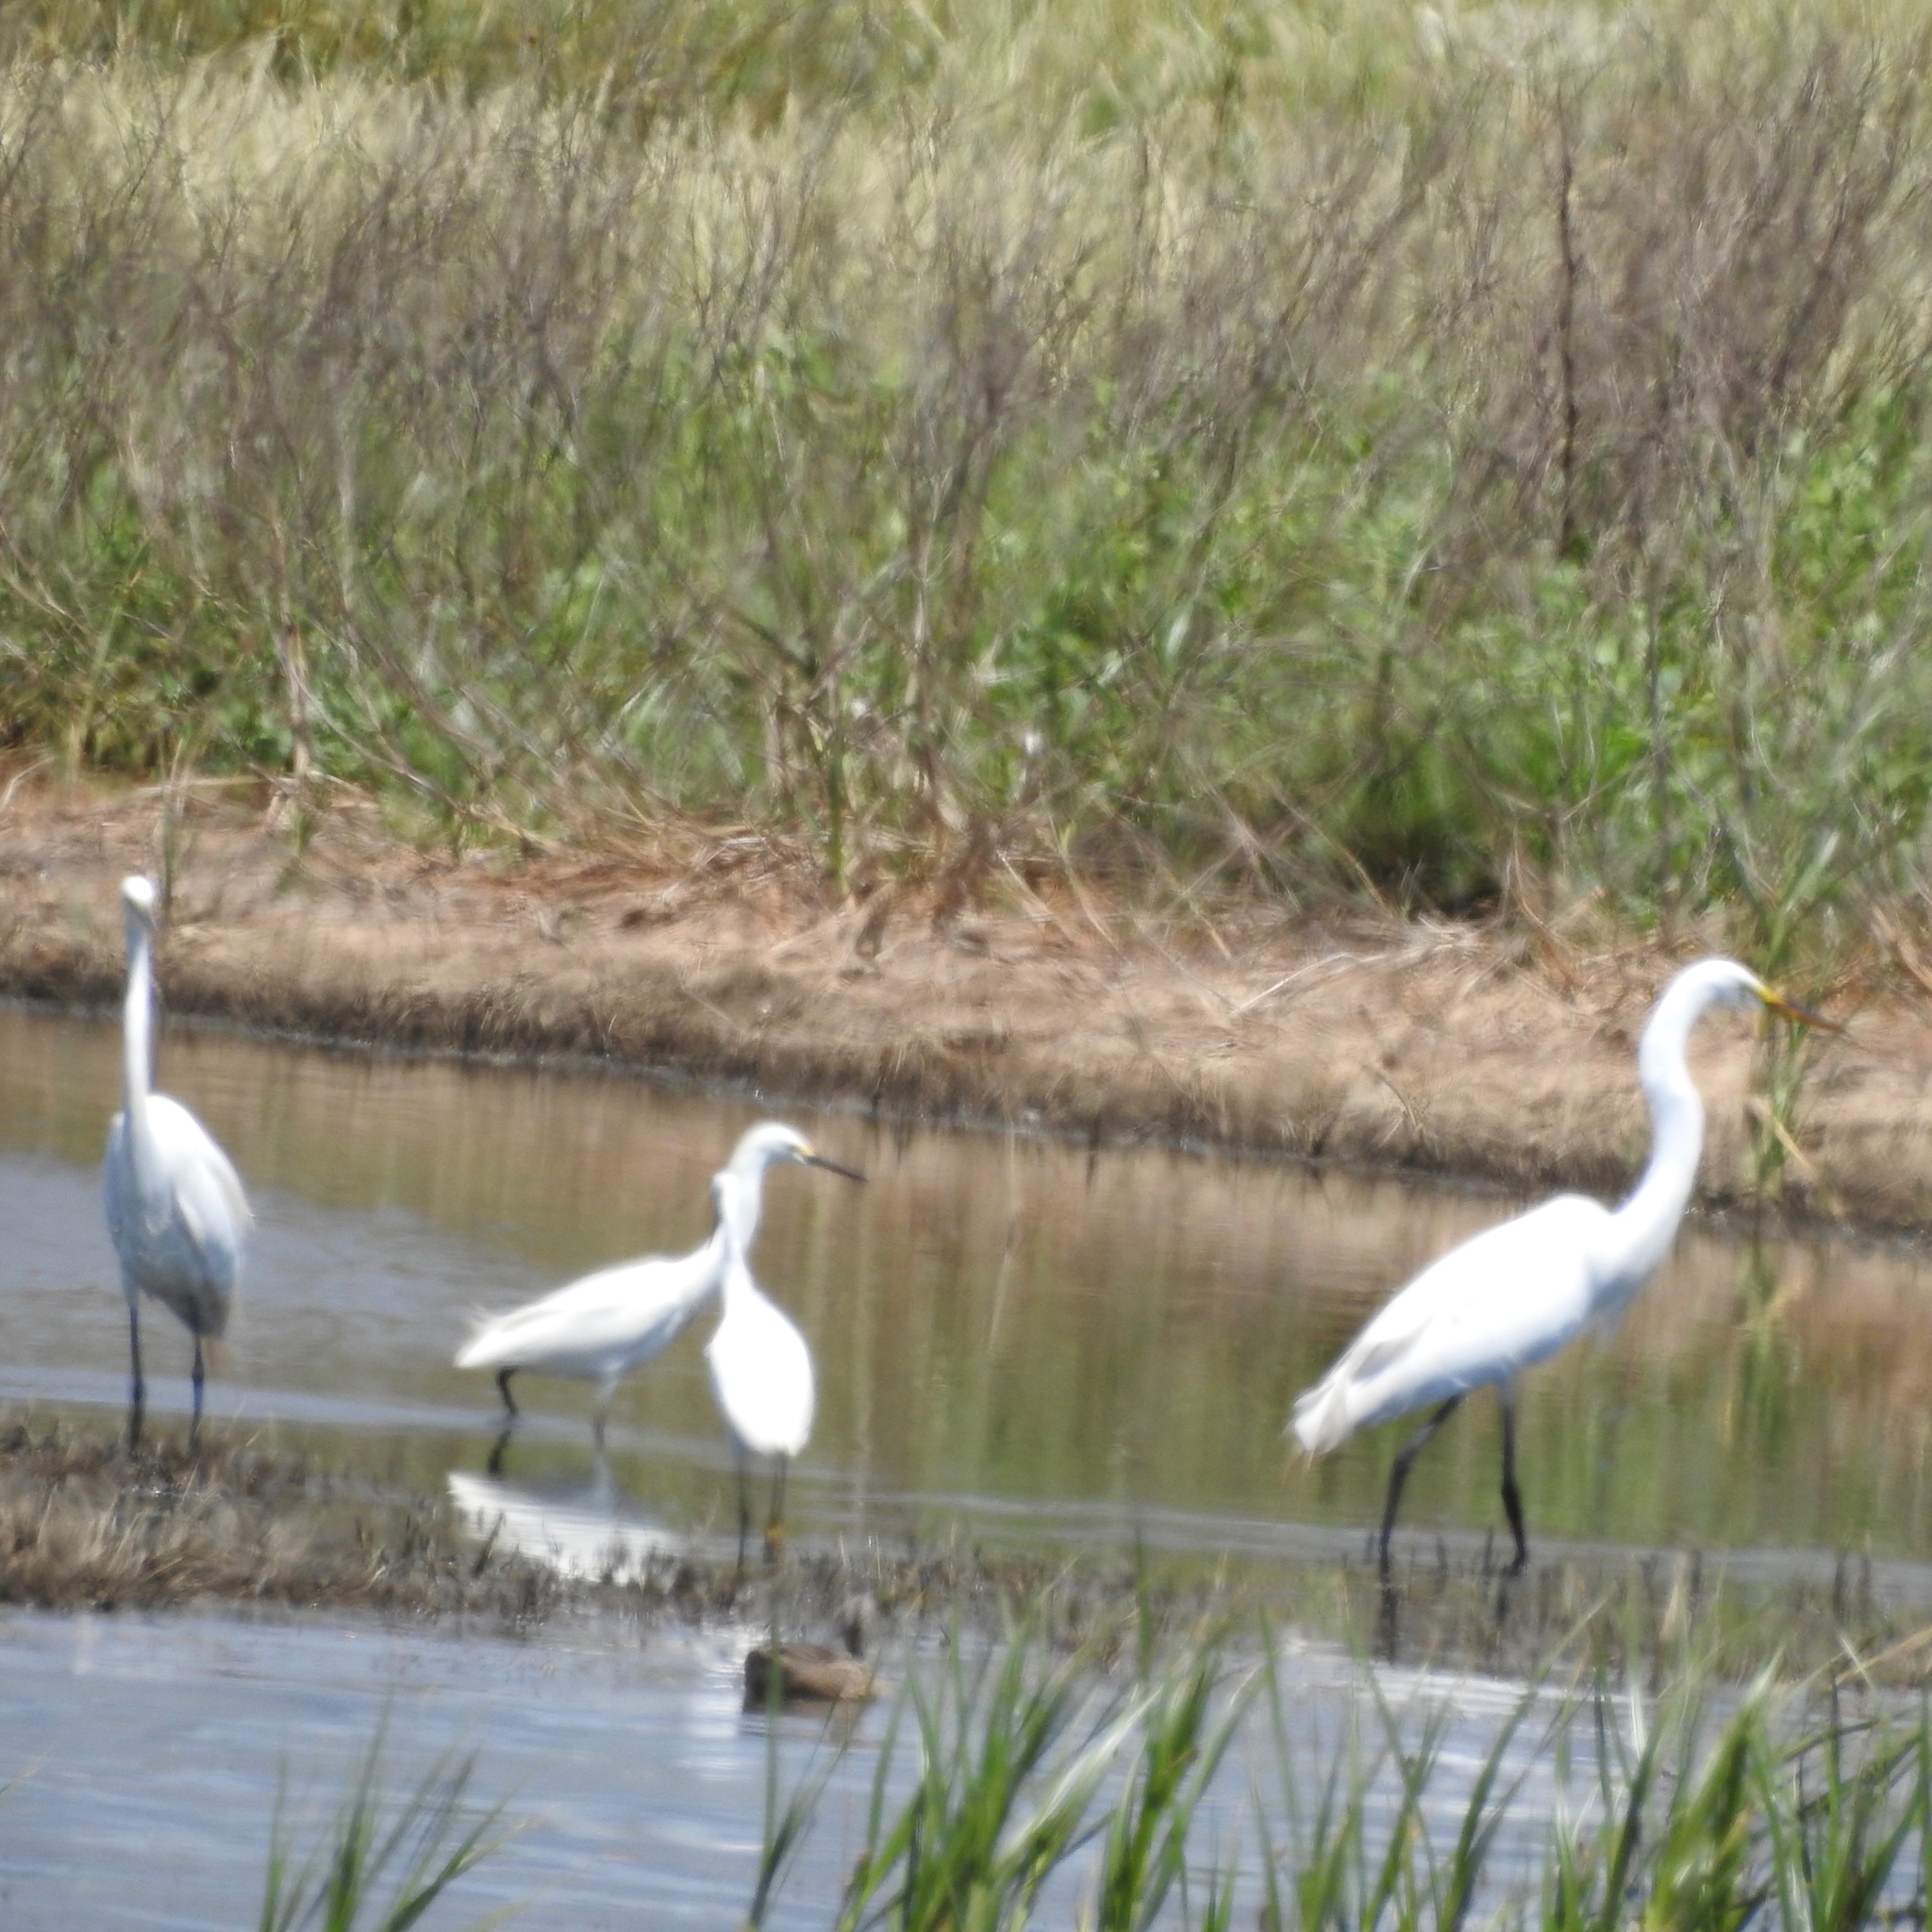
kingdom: Animalia
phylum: Chordata
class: Aves
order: Pelecaniformes
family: Ardeidae
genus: Egretta
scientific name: Egretta thula
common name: Snowy egret
